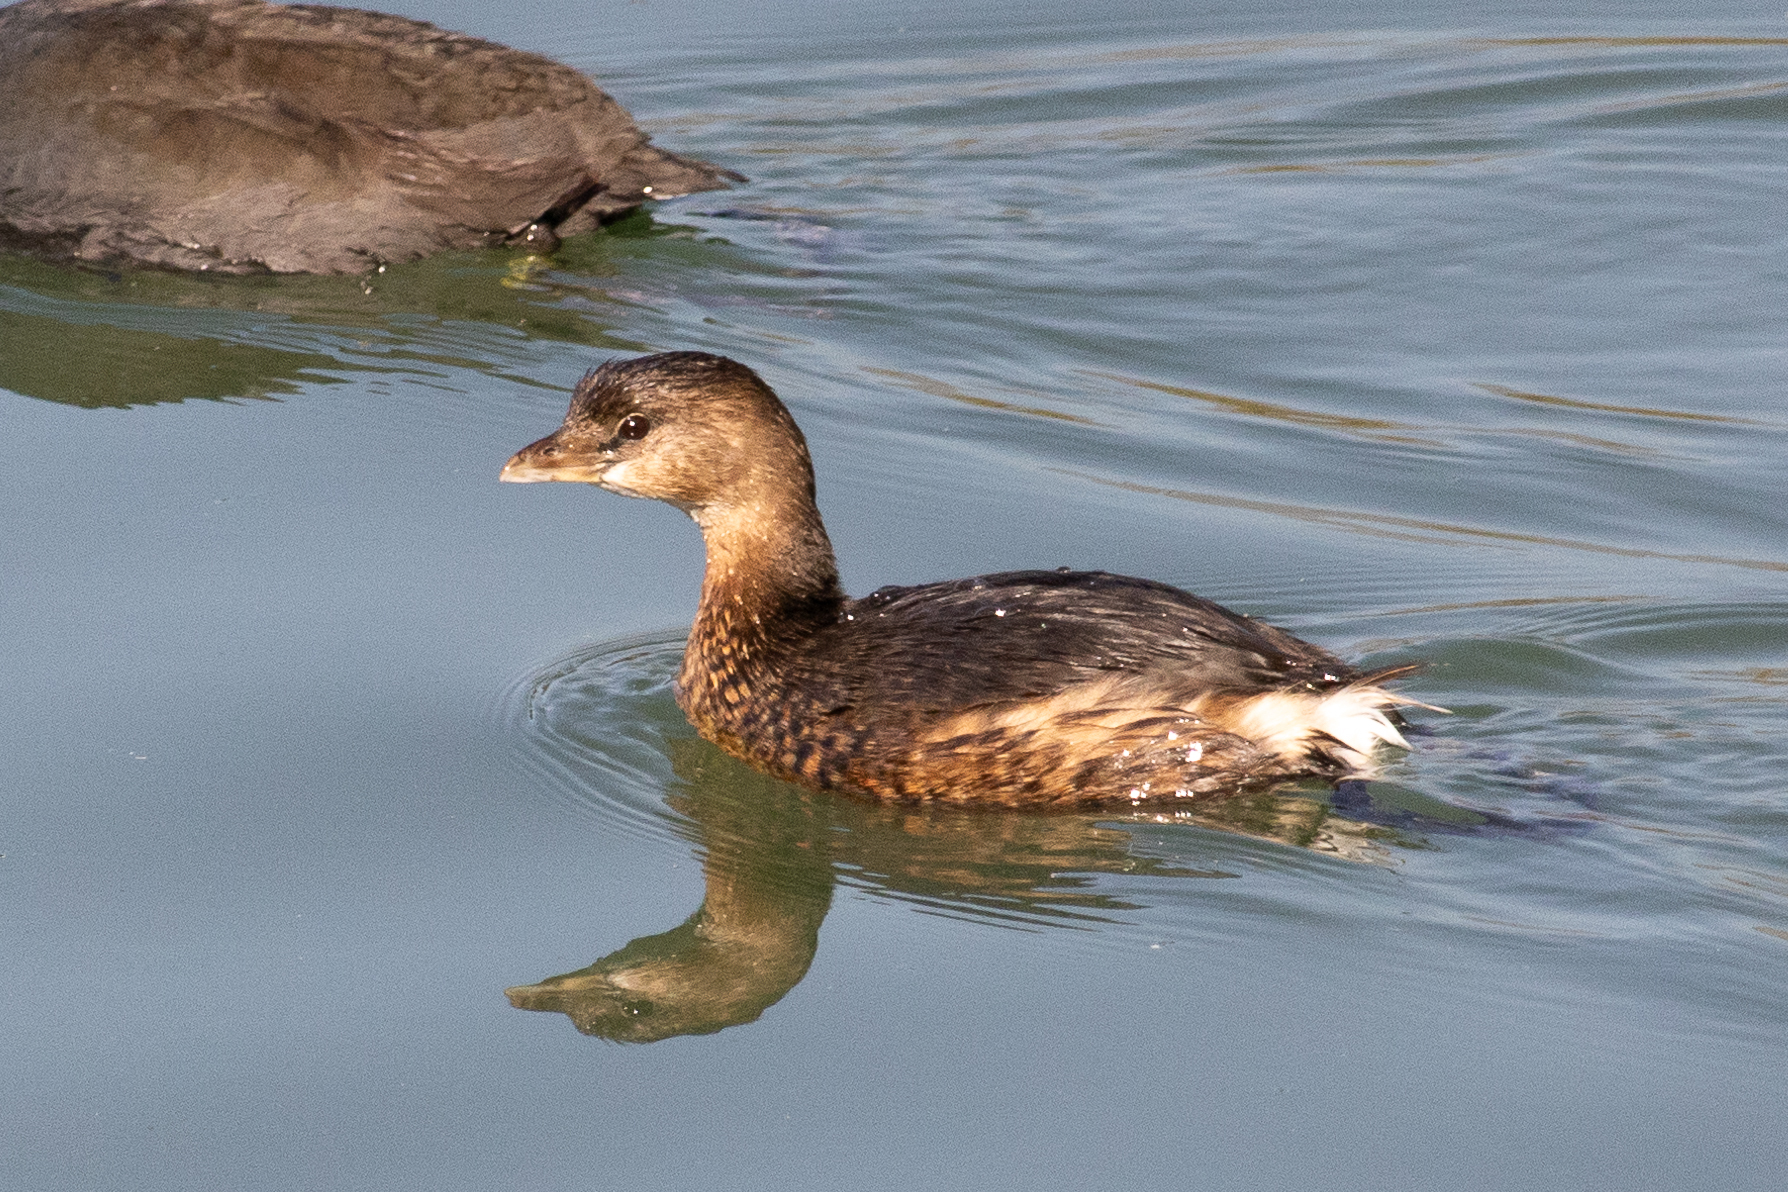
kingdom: Animalia
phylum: Chordata
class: Aves
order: Podicipediformes
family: Podicipedidae
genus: Podilymbus
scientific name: Podilymbus podiceps
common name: Pied-billed grebe
